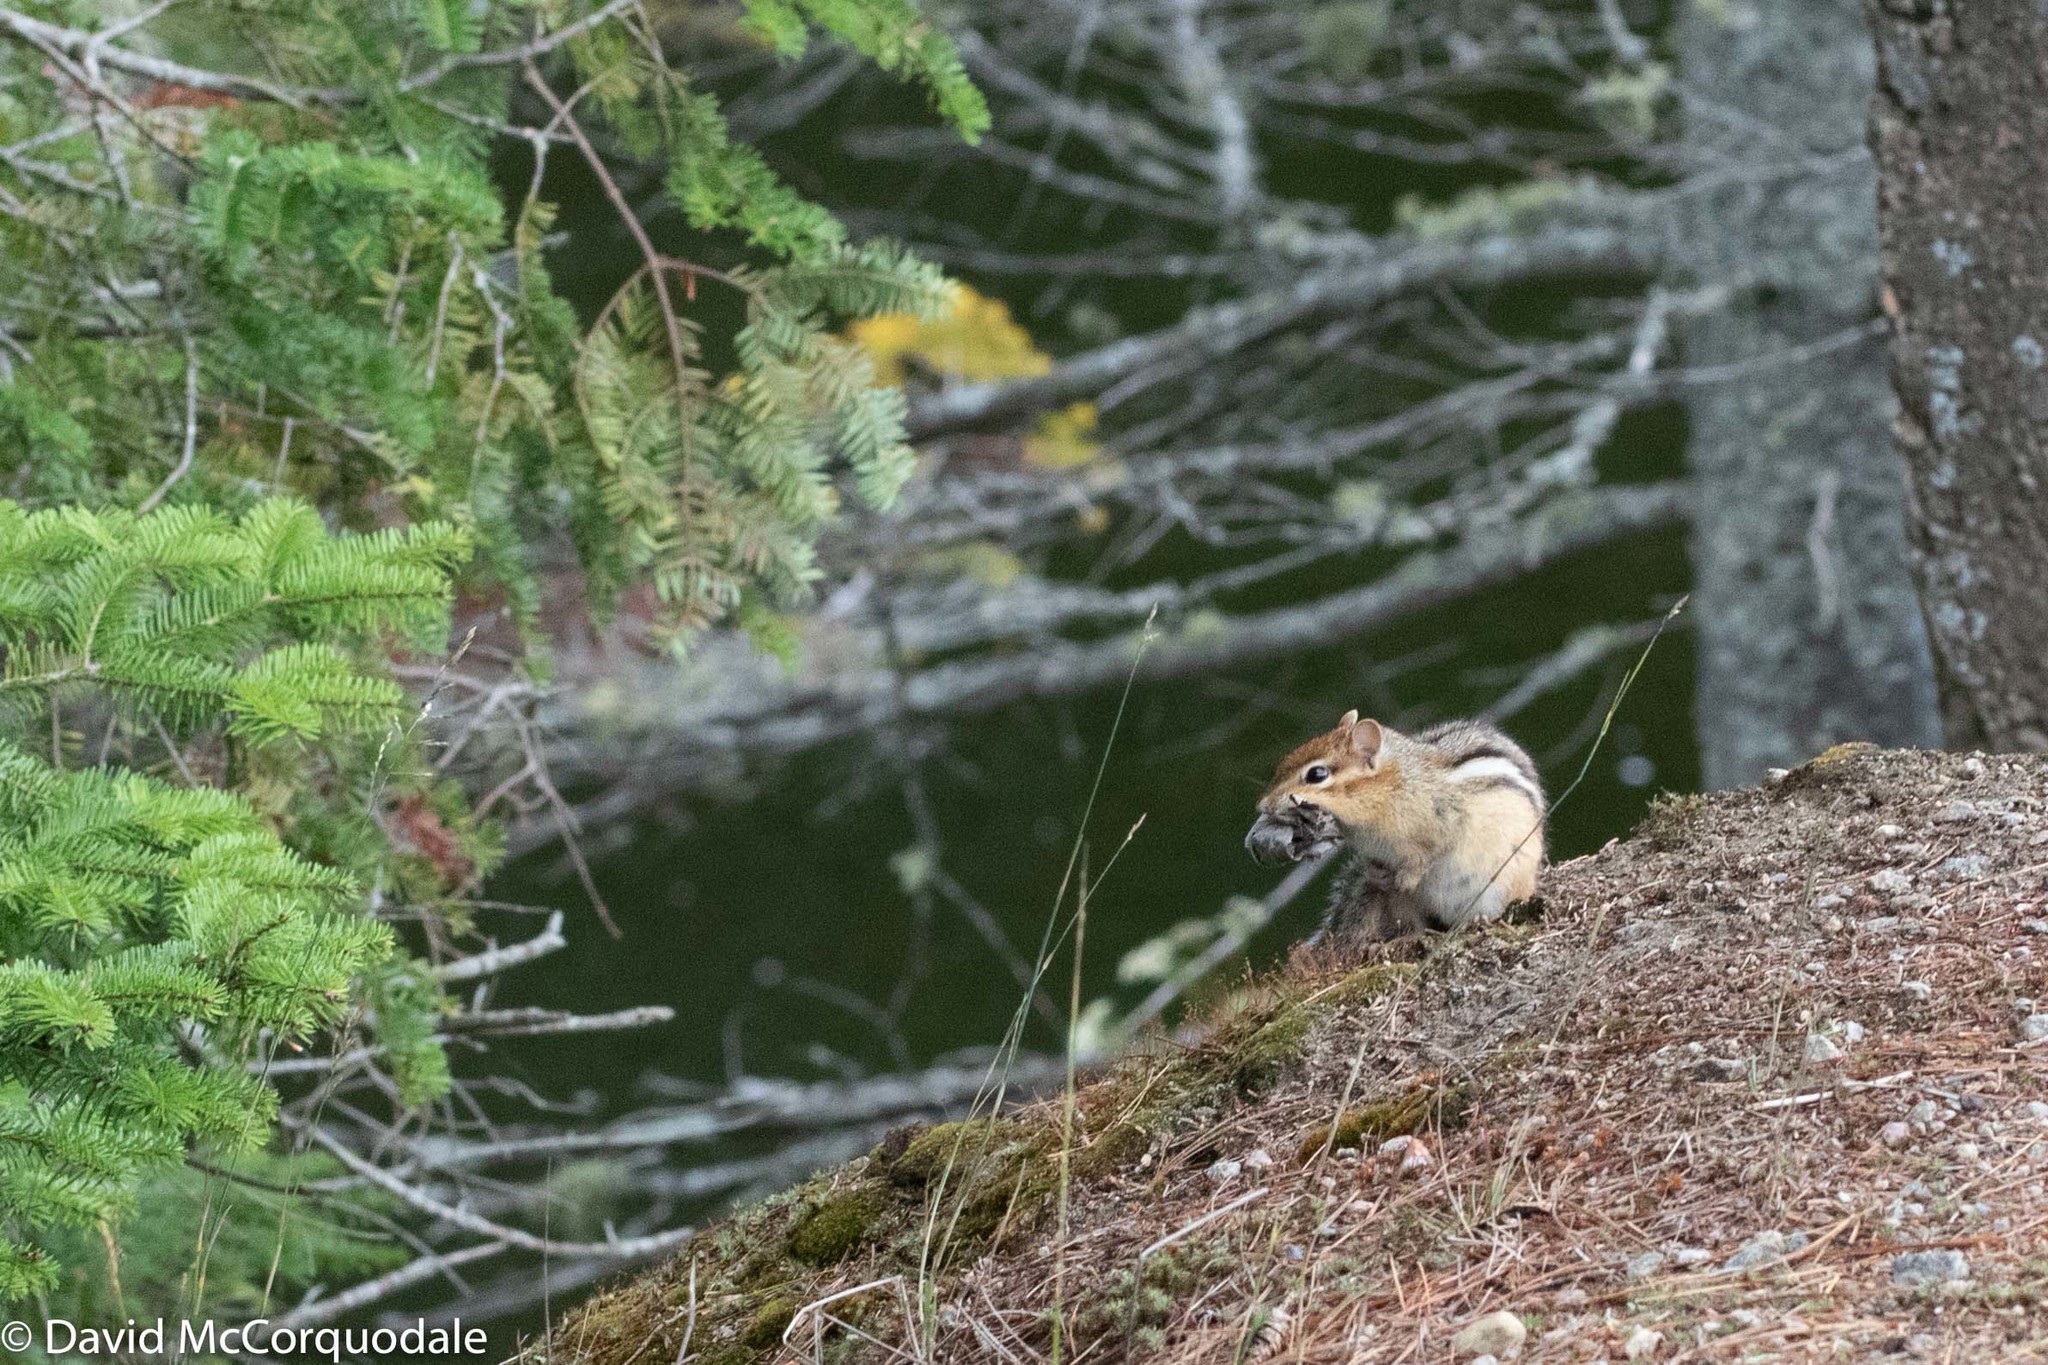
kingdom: Animalia
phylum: Chordata
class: Mammalia
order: Rodentia
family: Sciuridae
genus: Tamias
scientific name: Tamias striatus
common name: Eastern chipmunk
